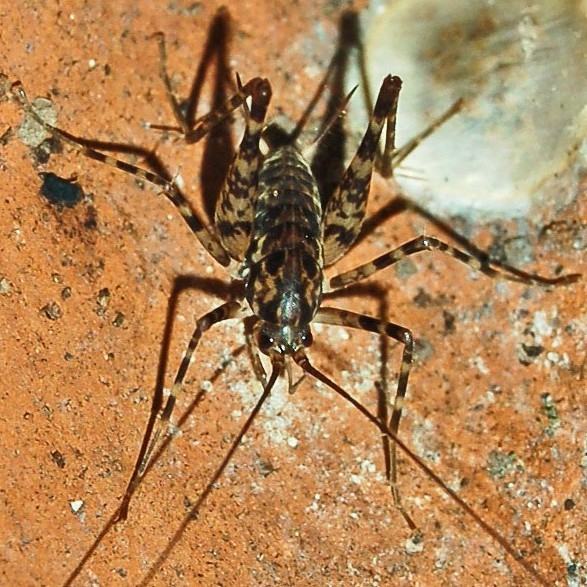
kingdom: Animalia
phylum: Arthropoda
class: Insecta
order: Orthoptera
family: Rhaphidophoridae
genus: Diestrammena
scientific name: Diestrammena japanica
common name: Japanese camel cricket
